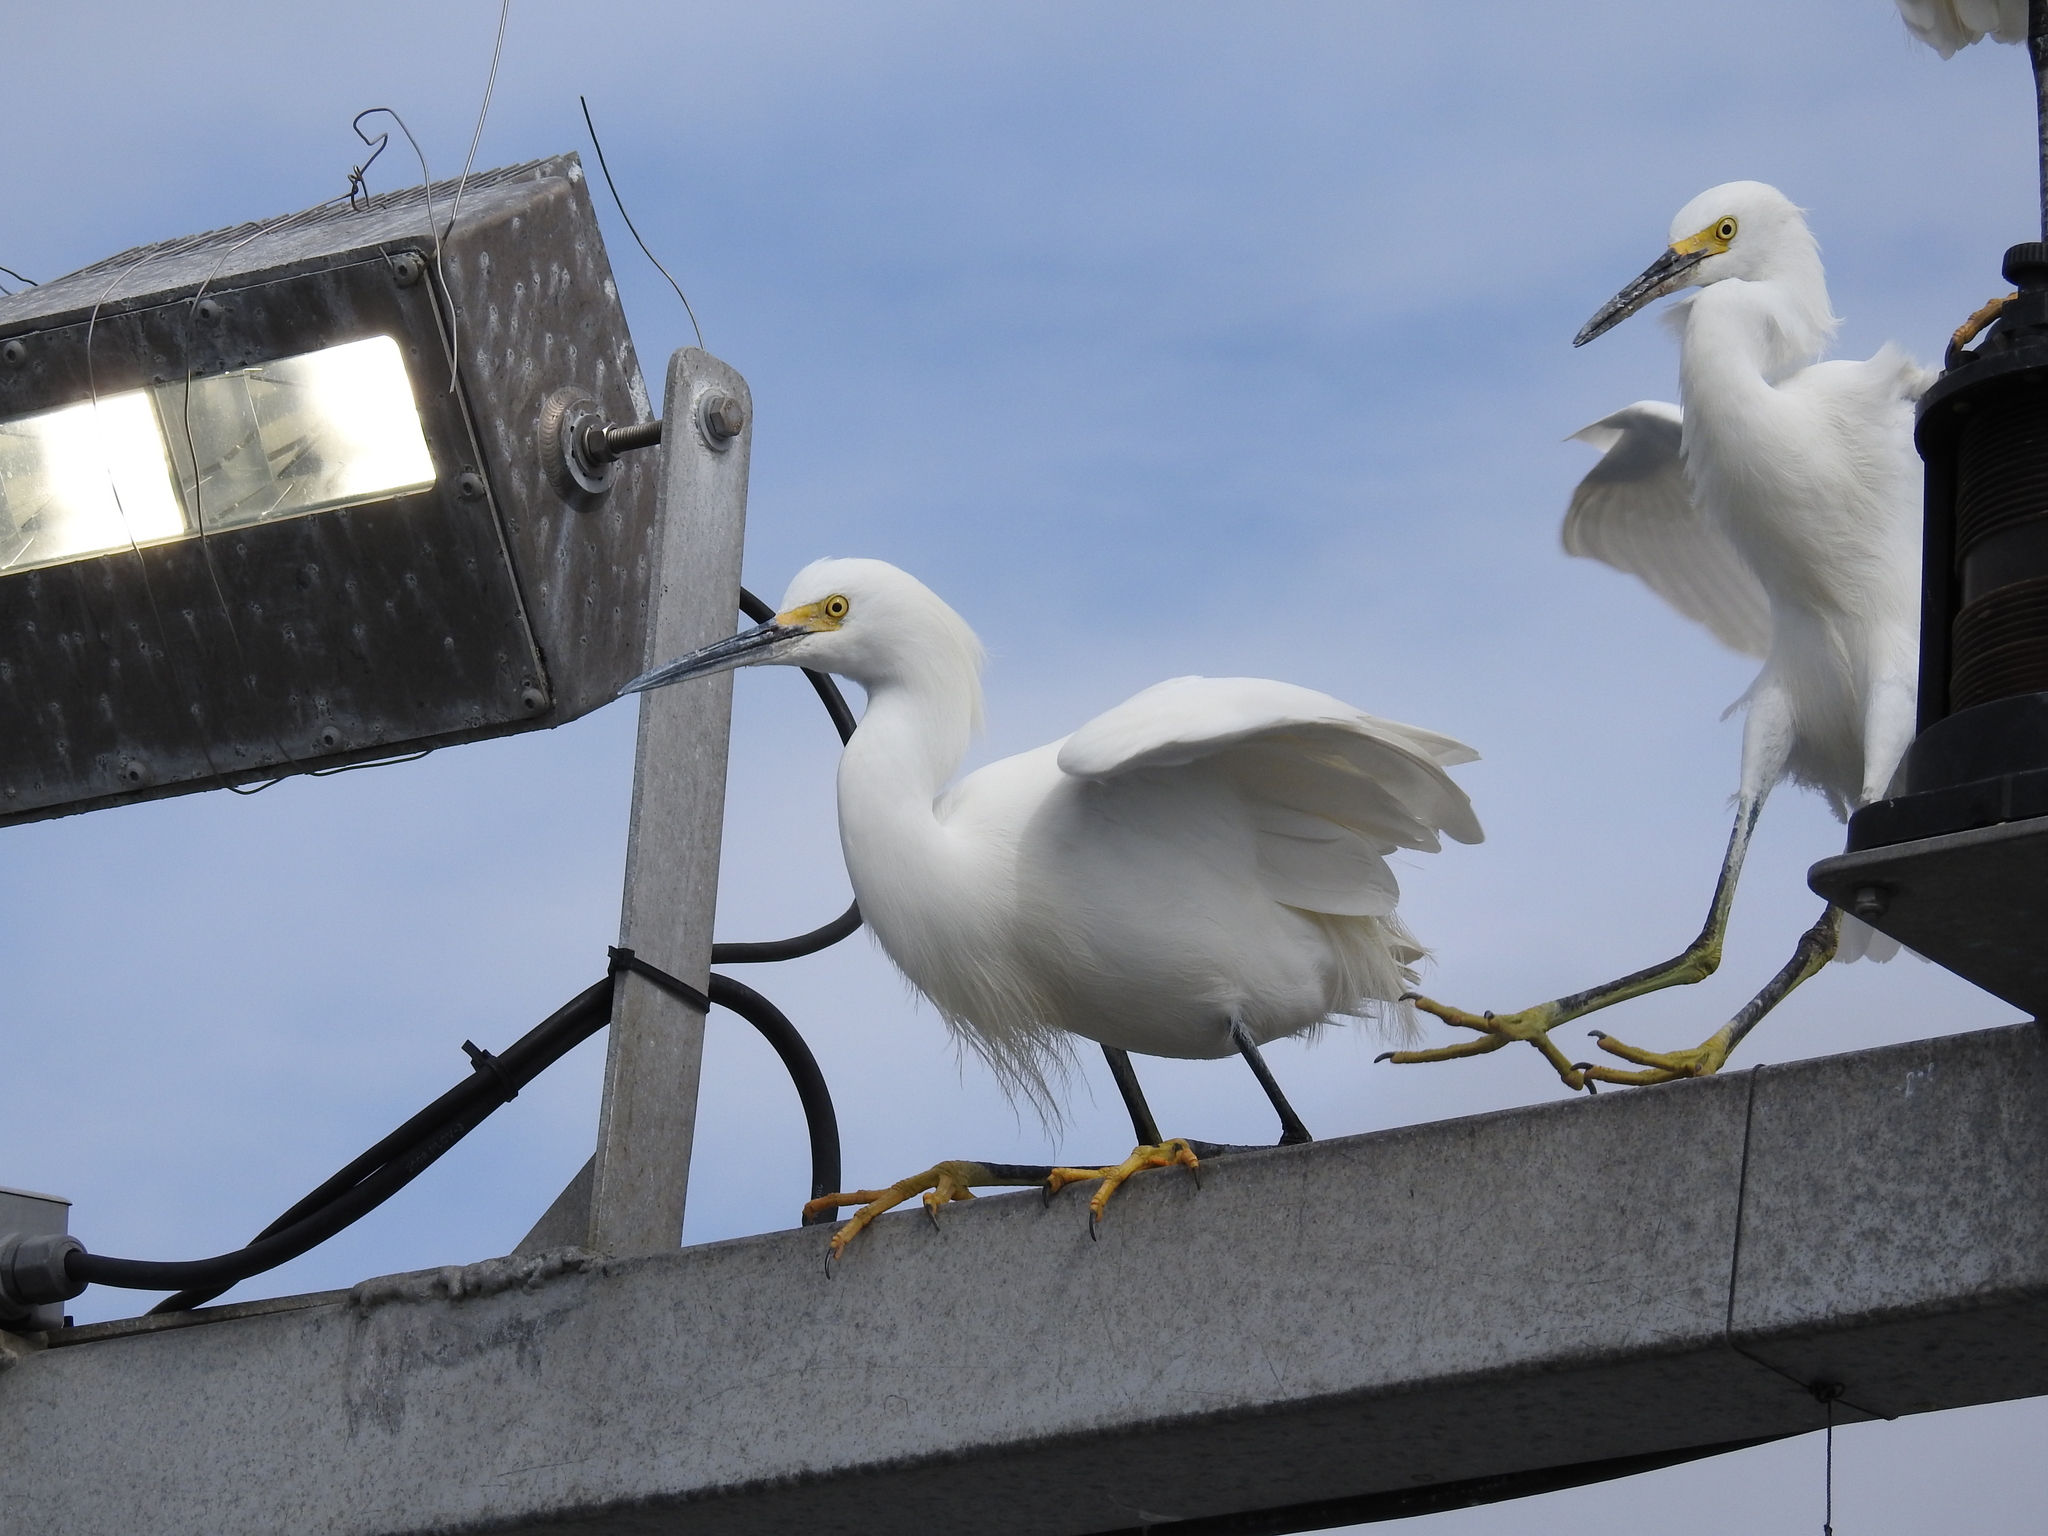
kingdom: Animalia
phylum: Chordata
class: Aves
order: Pelecaniformes
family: Ardeidae
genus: Egretta
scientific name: Egretta thula
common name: Snowy egret
